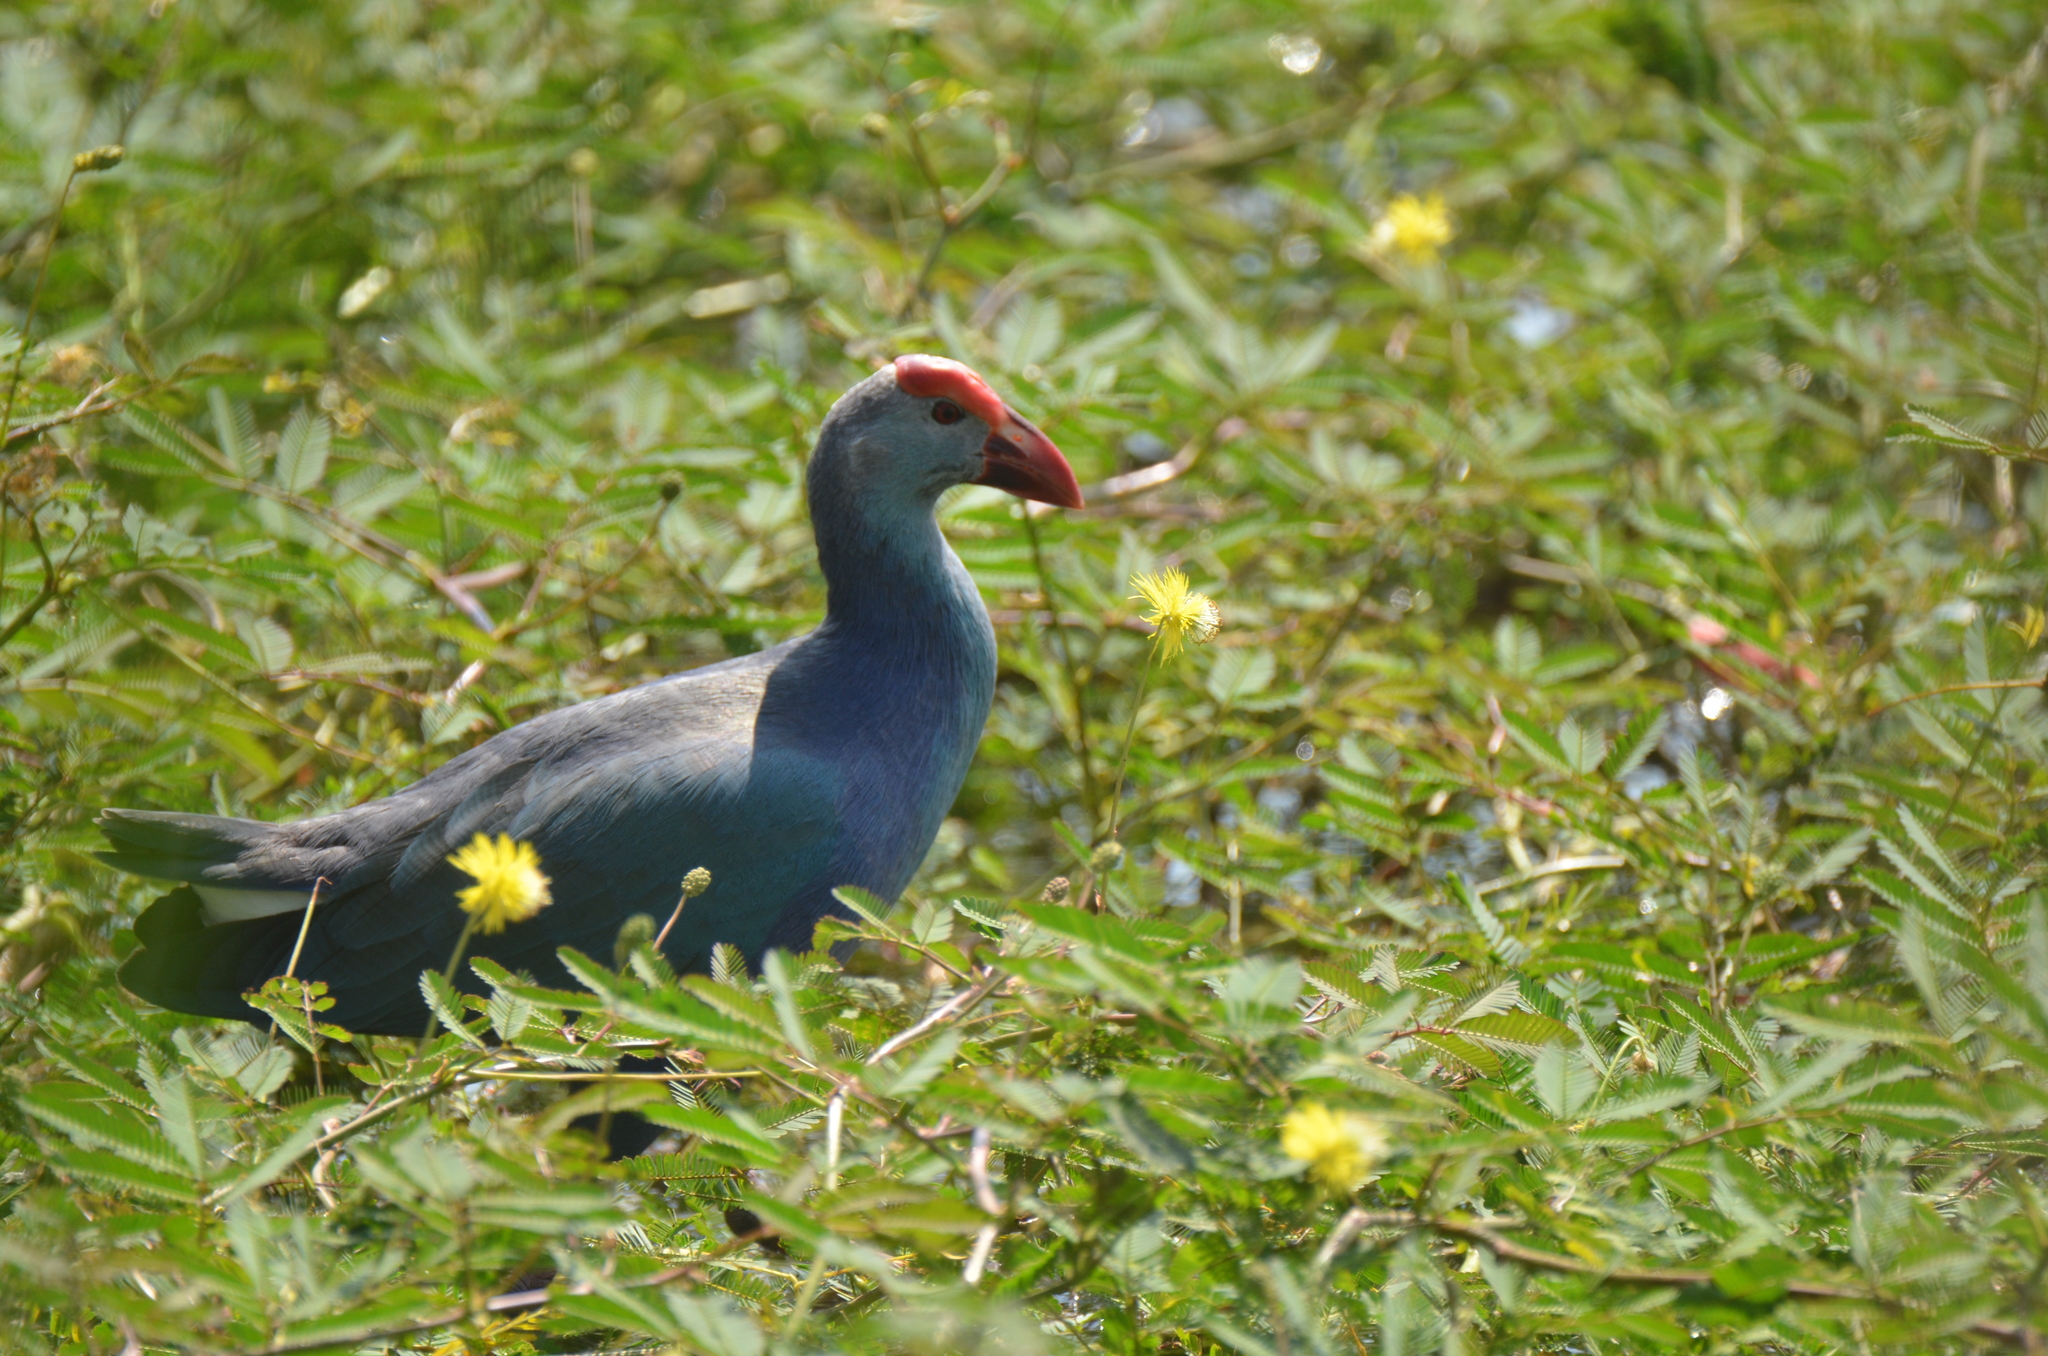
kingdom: Animalia
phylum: Chordata
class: Aves
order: Gruiformes
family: Rallidae
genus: Porphyrio
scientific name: Porphyrio porphyrio
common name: Purple swamphen
